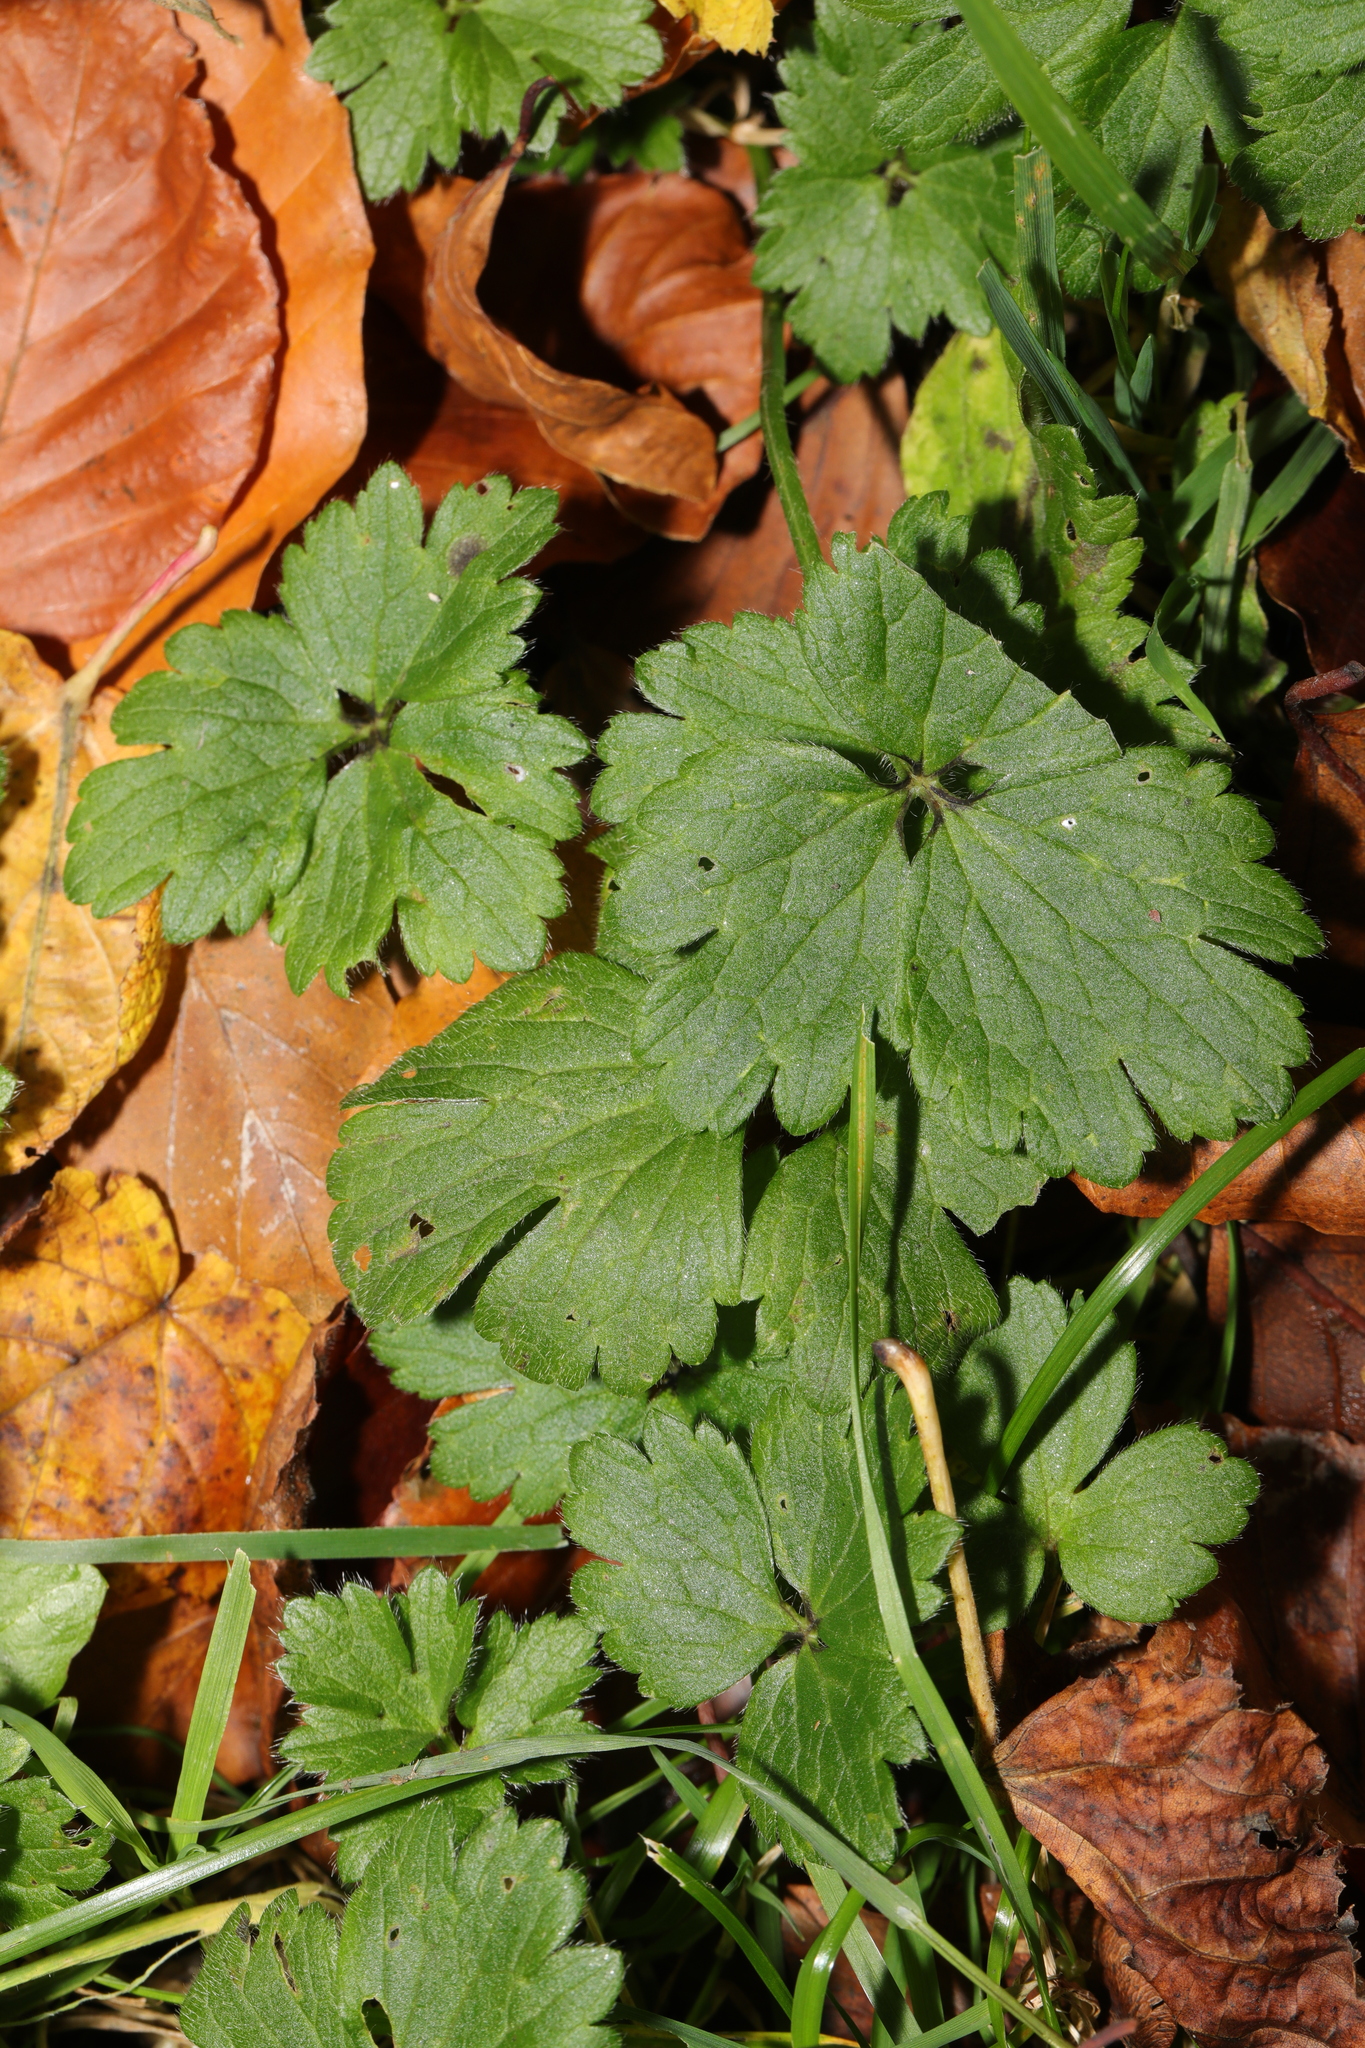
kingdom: Plantae
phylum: Tracheophyta
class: Magnoliopsida
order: Ranunculales
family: Ranunculaceae
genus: Ranunculus
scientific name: Ranunculus repens
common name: Creeping buttercup
